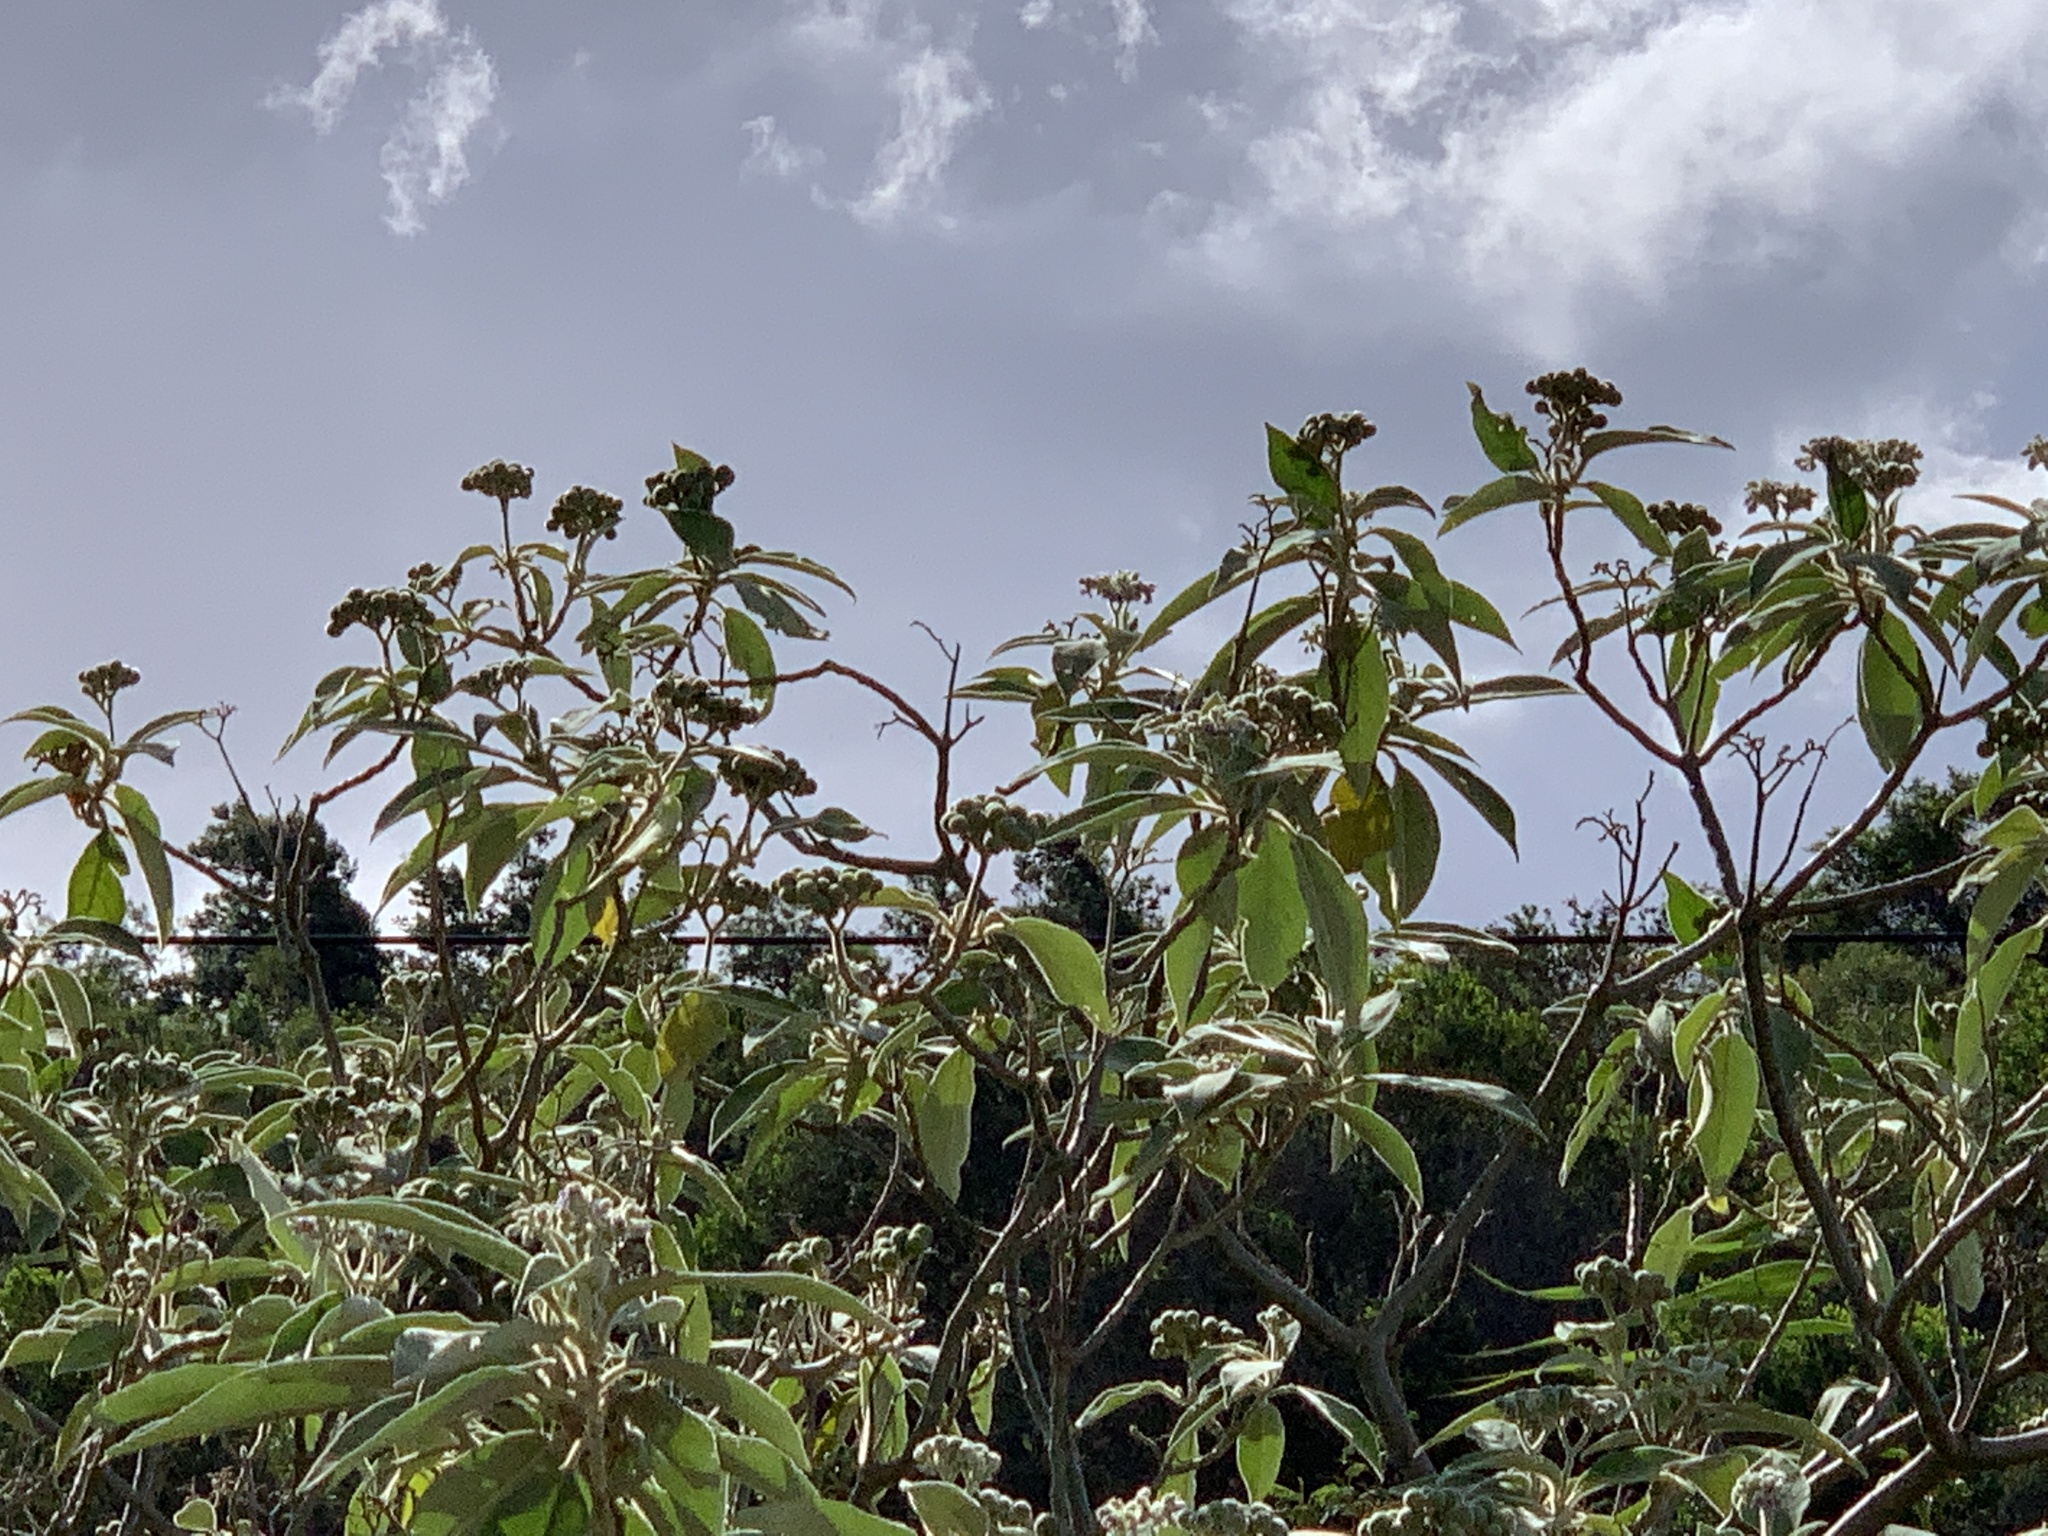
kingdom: Plantae
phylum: Tracheophyta
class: Magnoliopsida
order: Solanales
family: Solanaceae
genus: Solanum
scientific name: Solanum mauritianum
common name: Earleaf nightshade
